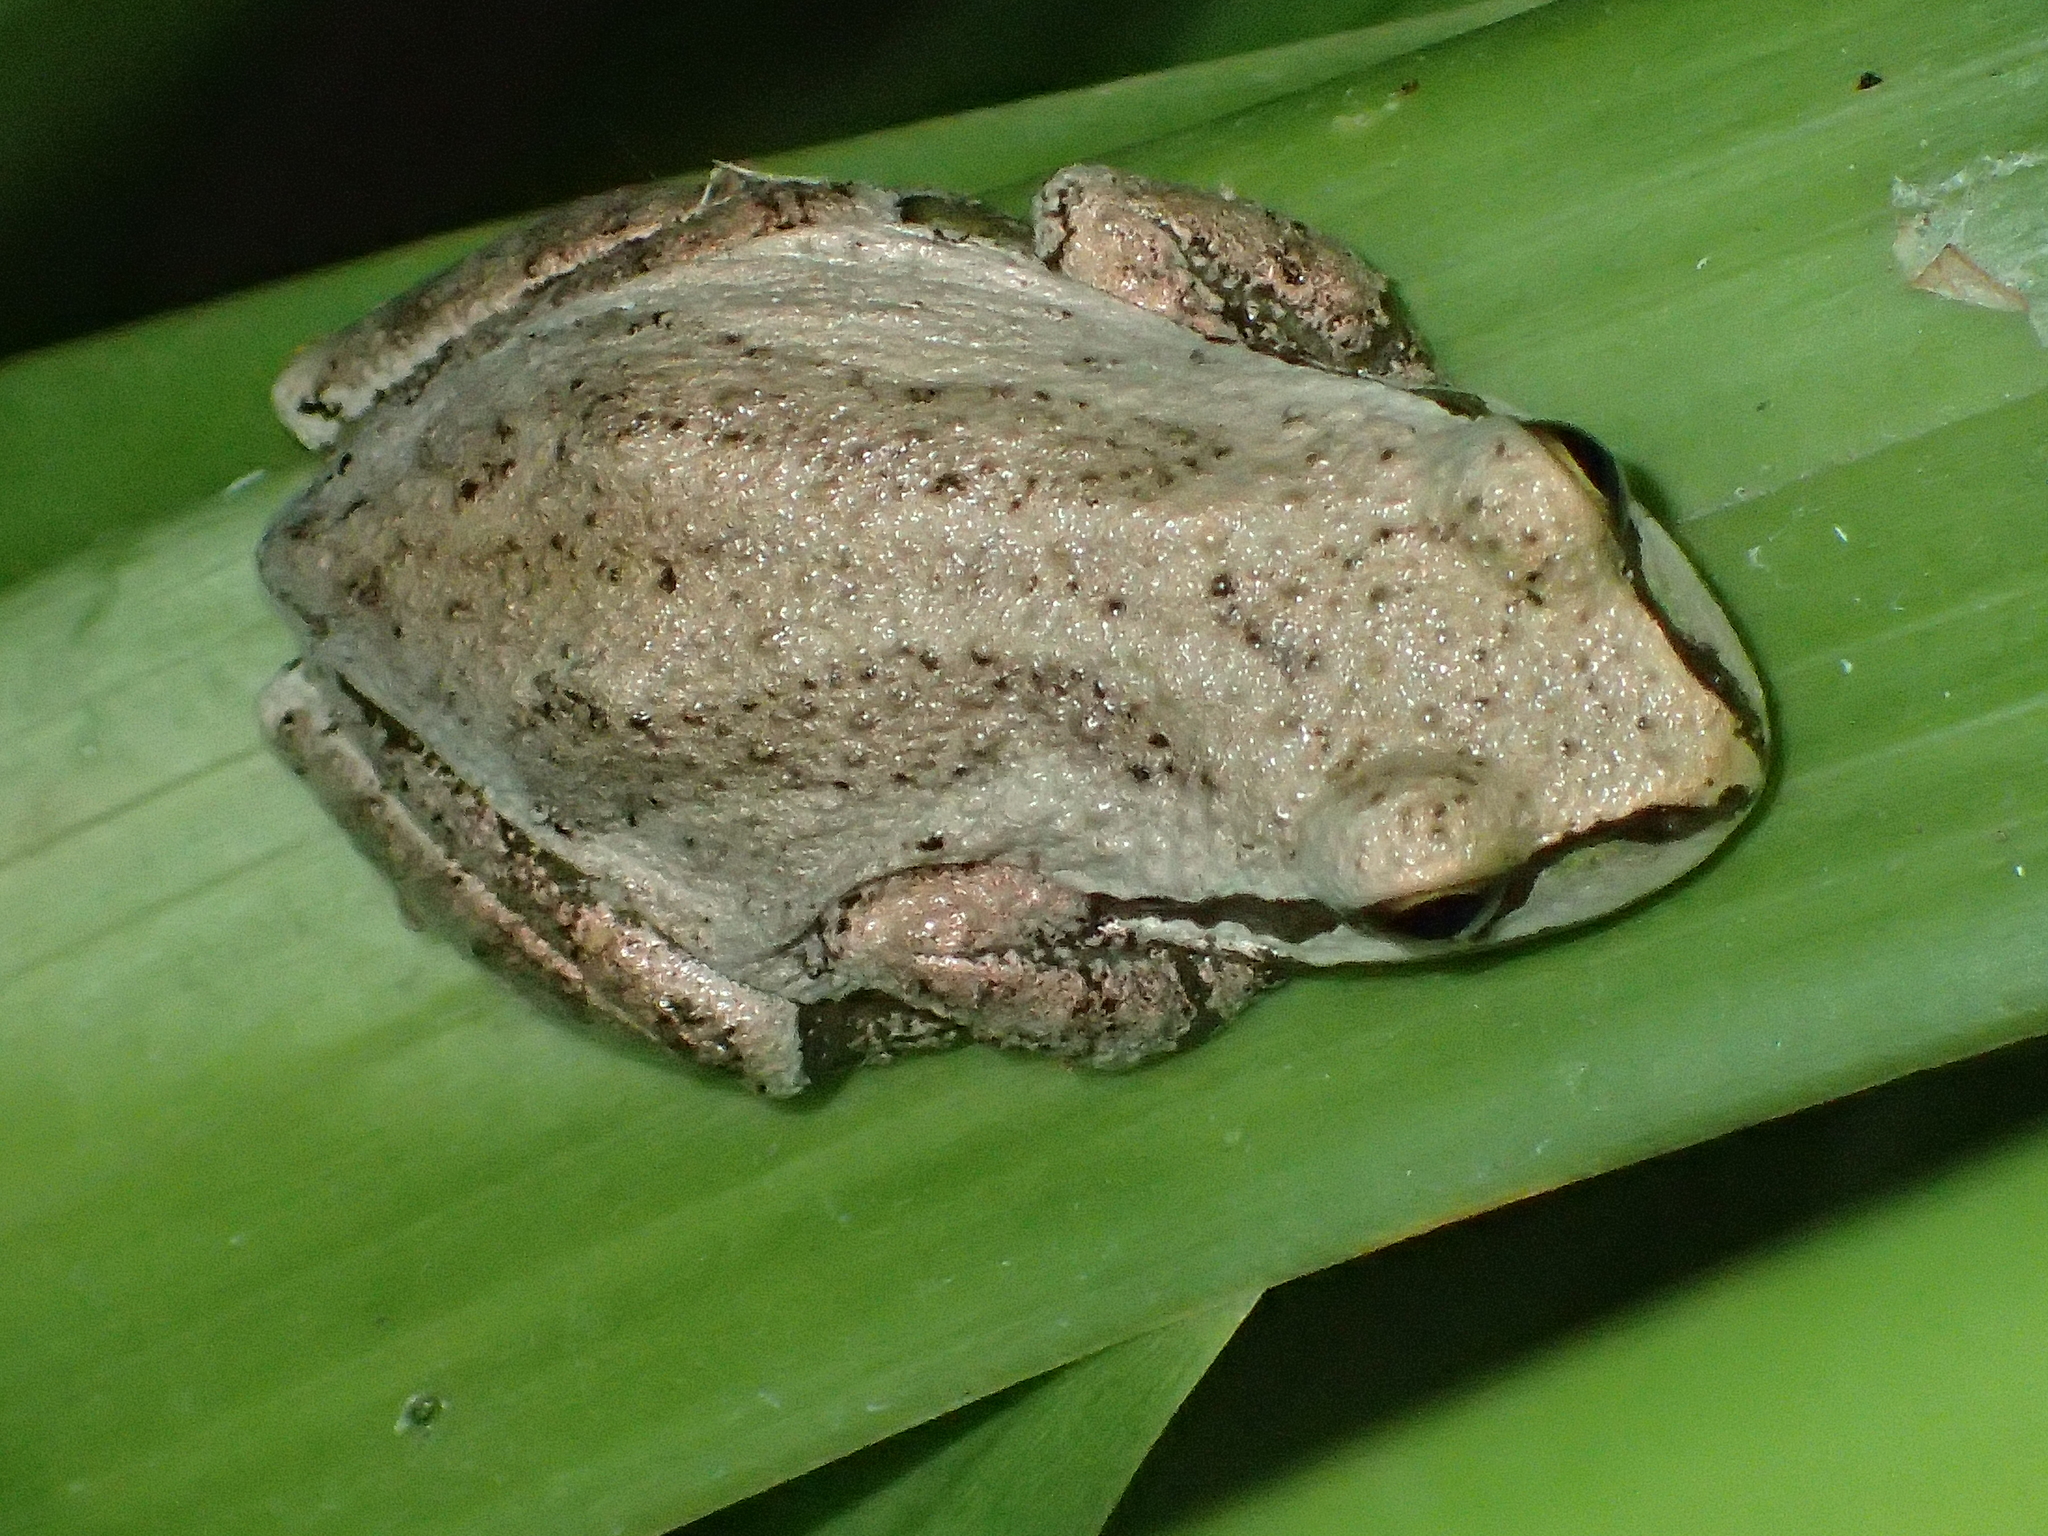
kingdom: Animalia
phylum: Chordata
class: Amphibia
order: Anura
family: Hylidae
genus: Pseudacris
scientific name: Pseudacris regilla
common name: Pacific chorus frog
